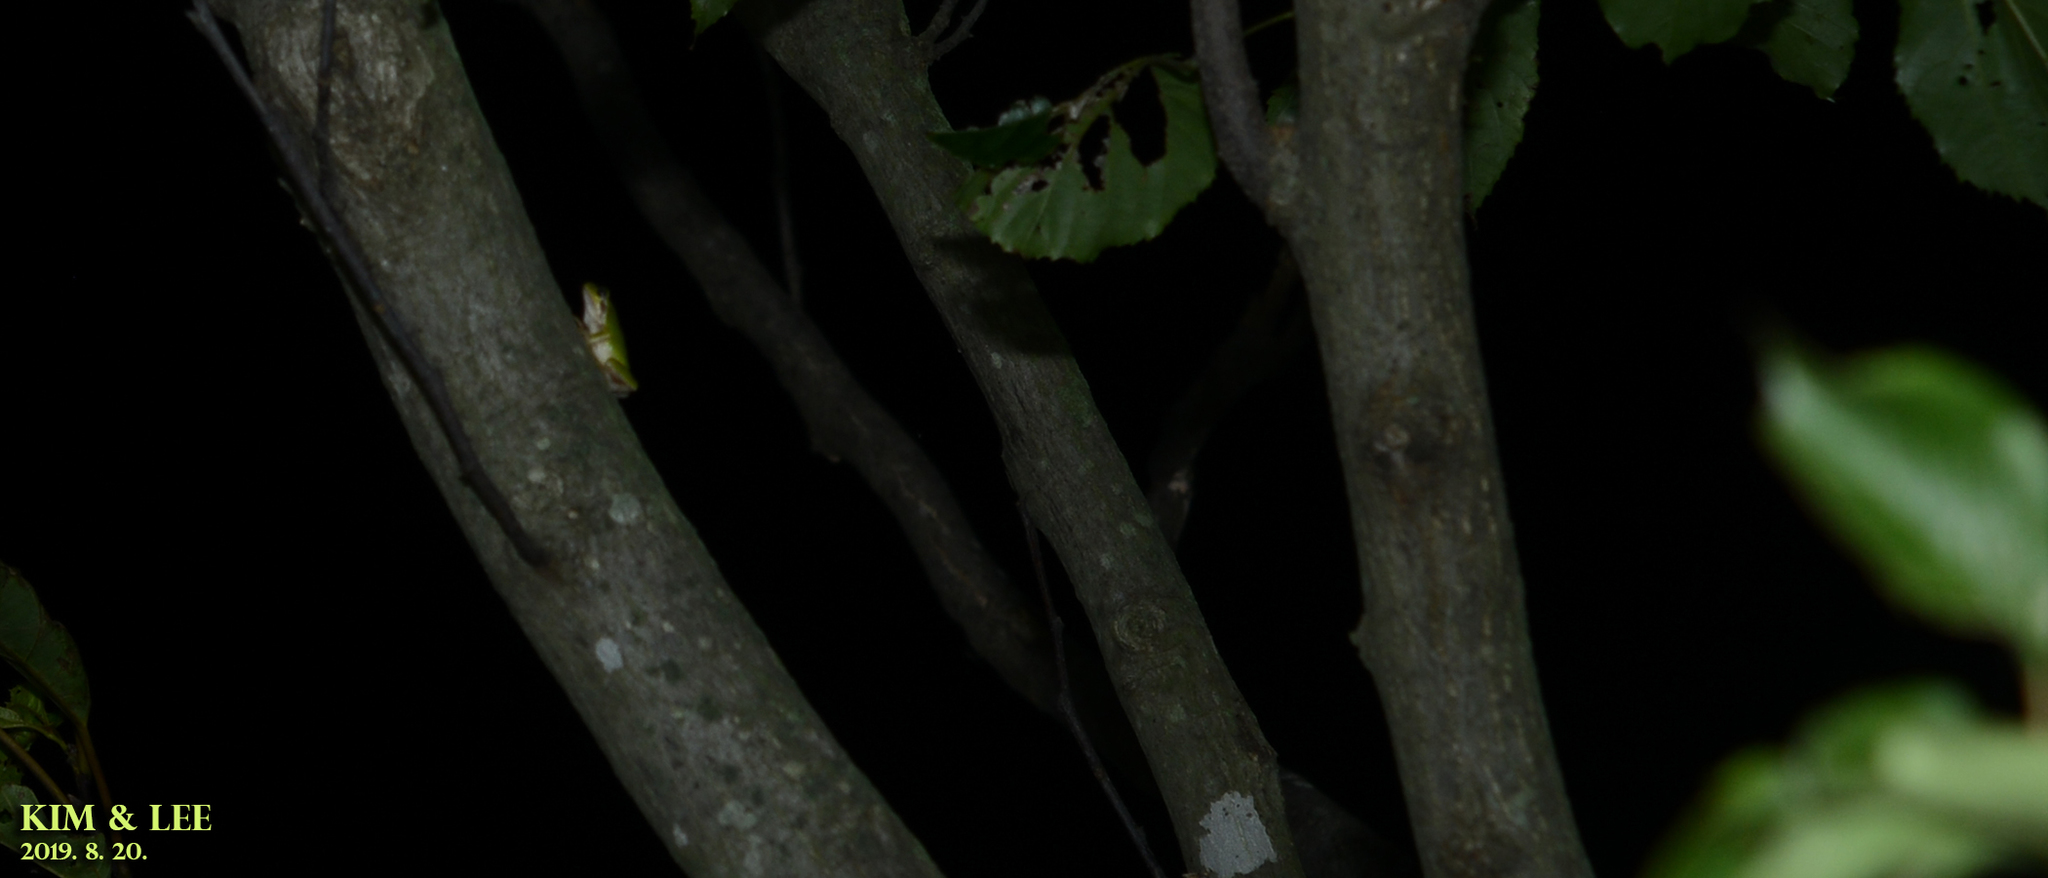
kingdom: Animalia
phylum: Chordata
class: Amphibia
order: Anura
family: Hylidae
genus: Dryophytes
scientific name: Dryophytes japonicus
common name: Japanese treefrog
